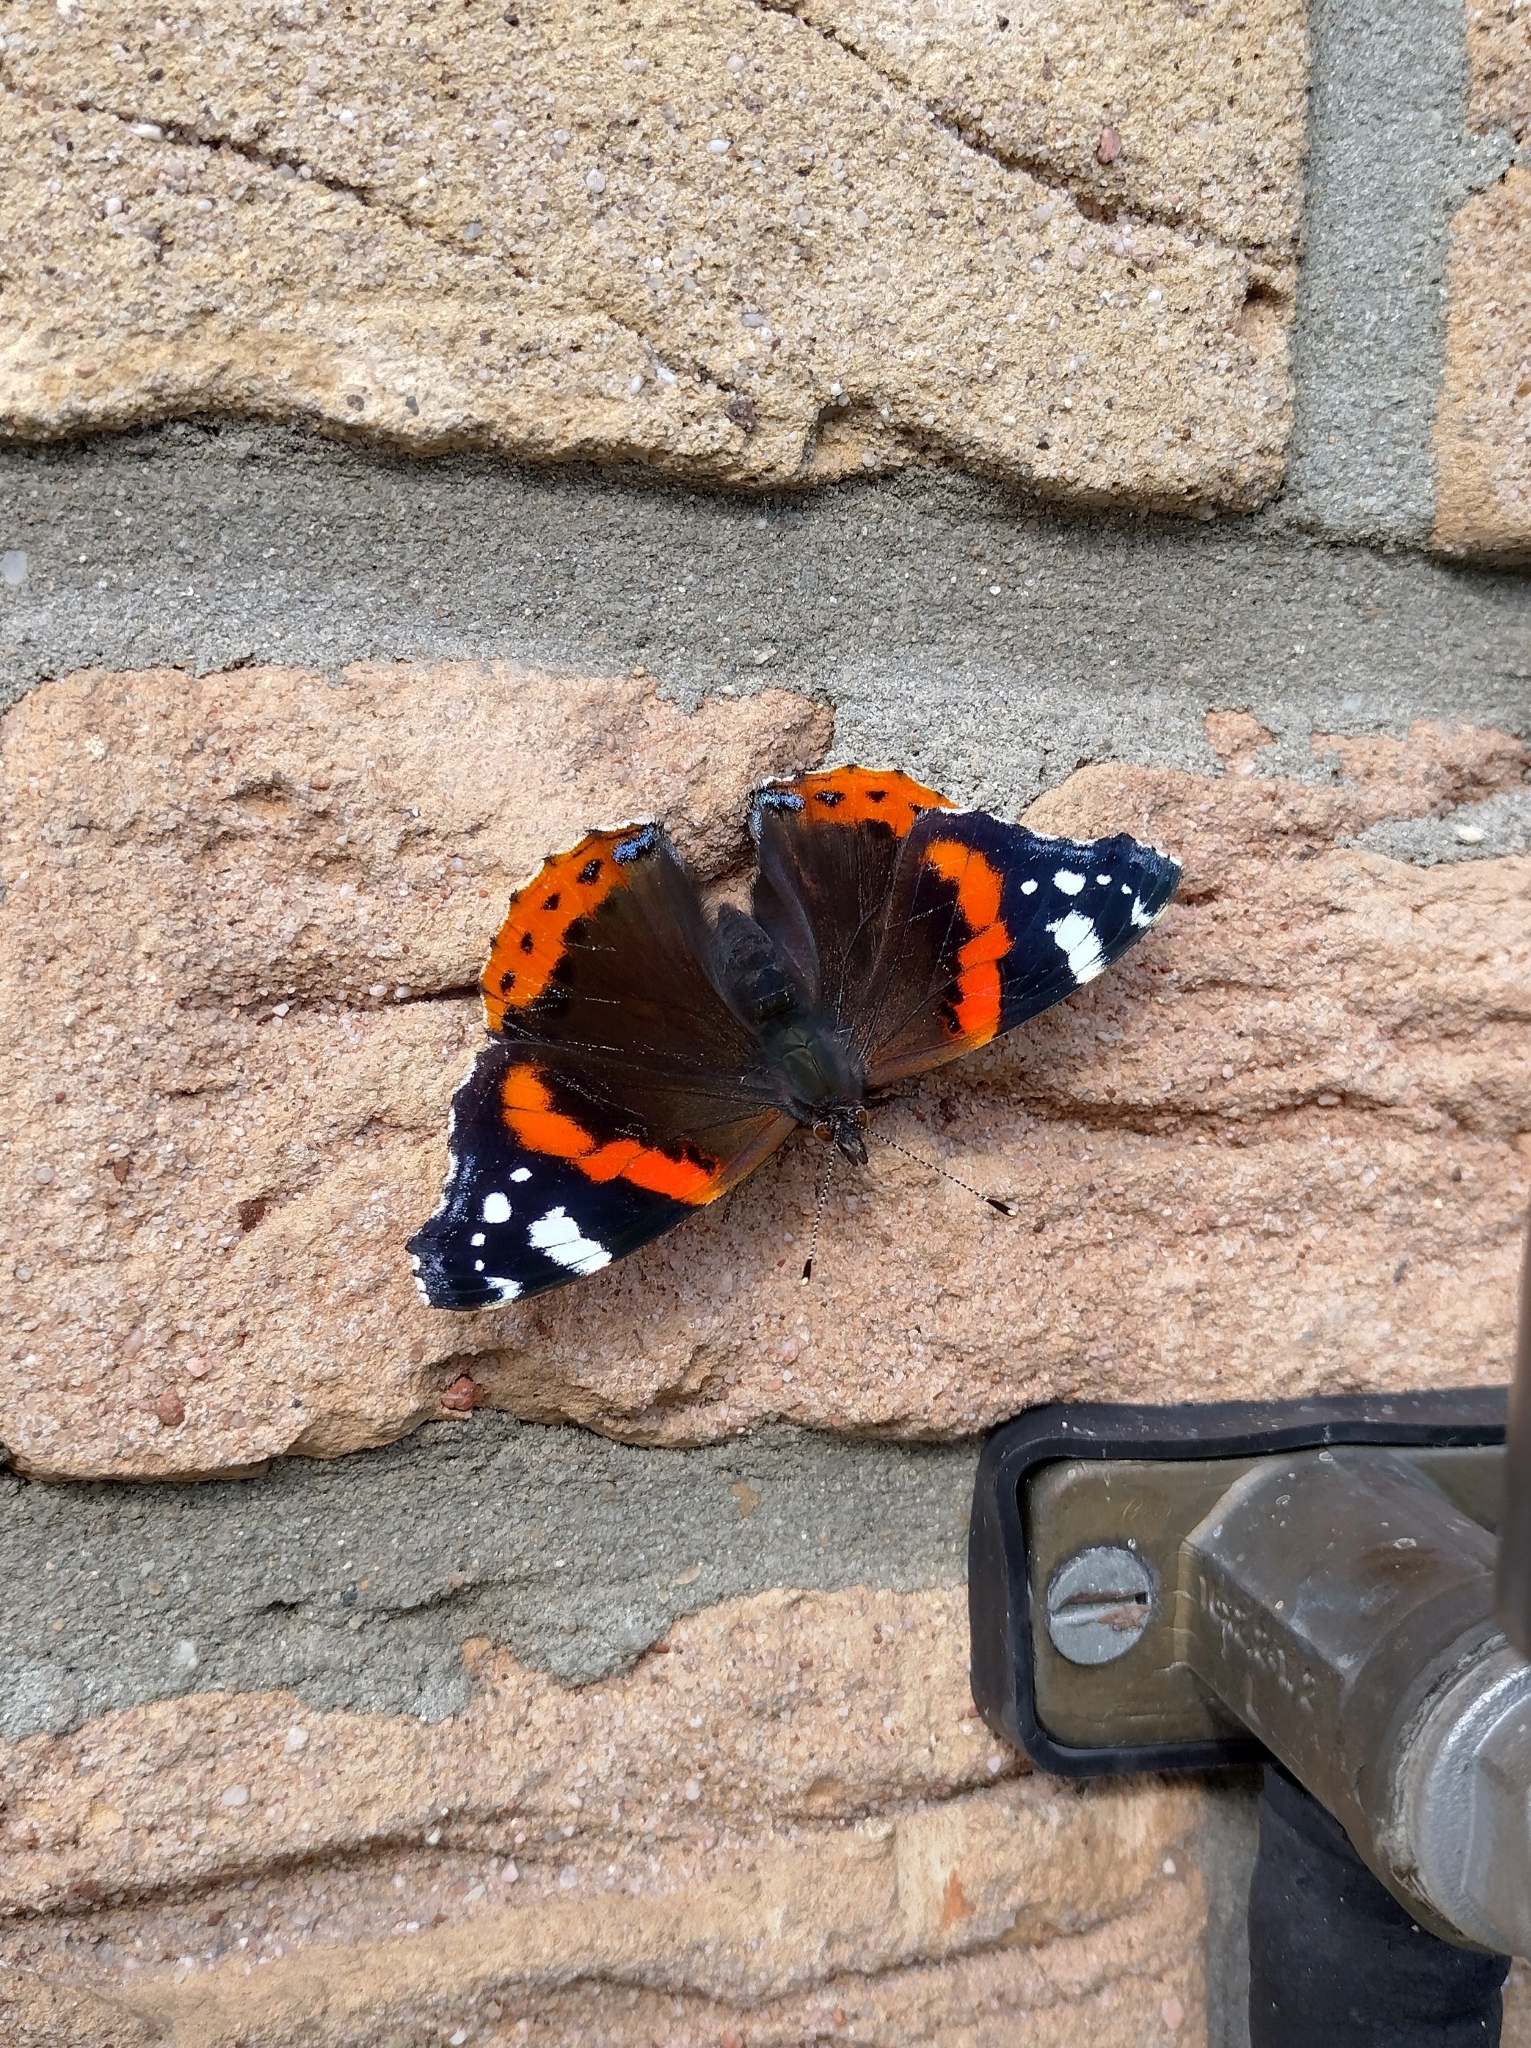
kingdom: Animalia
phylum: Arthropoda
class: Insecta
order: Lepidoptera
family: Nymphalidae
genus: Vanessa
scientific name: Vanessa atalanta
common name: Red admiral
